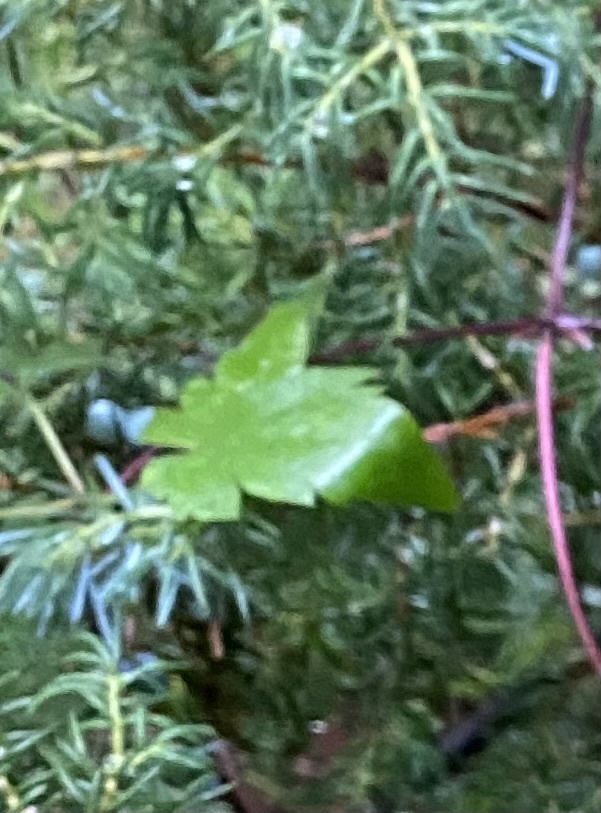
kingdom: Plantae
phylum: Tracheophyta
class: Magnoliopsida
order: Ranunculales
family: Ranunculaceae
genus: Clematis
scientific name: Clematis ochotensis
